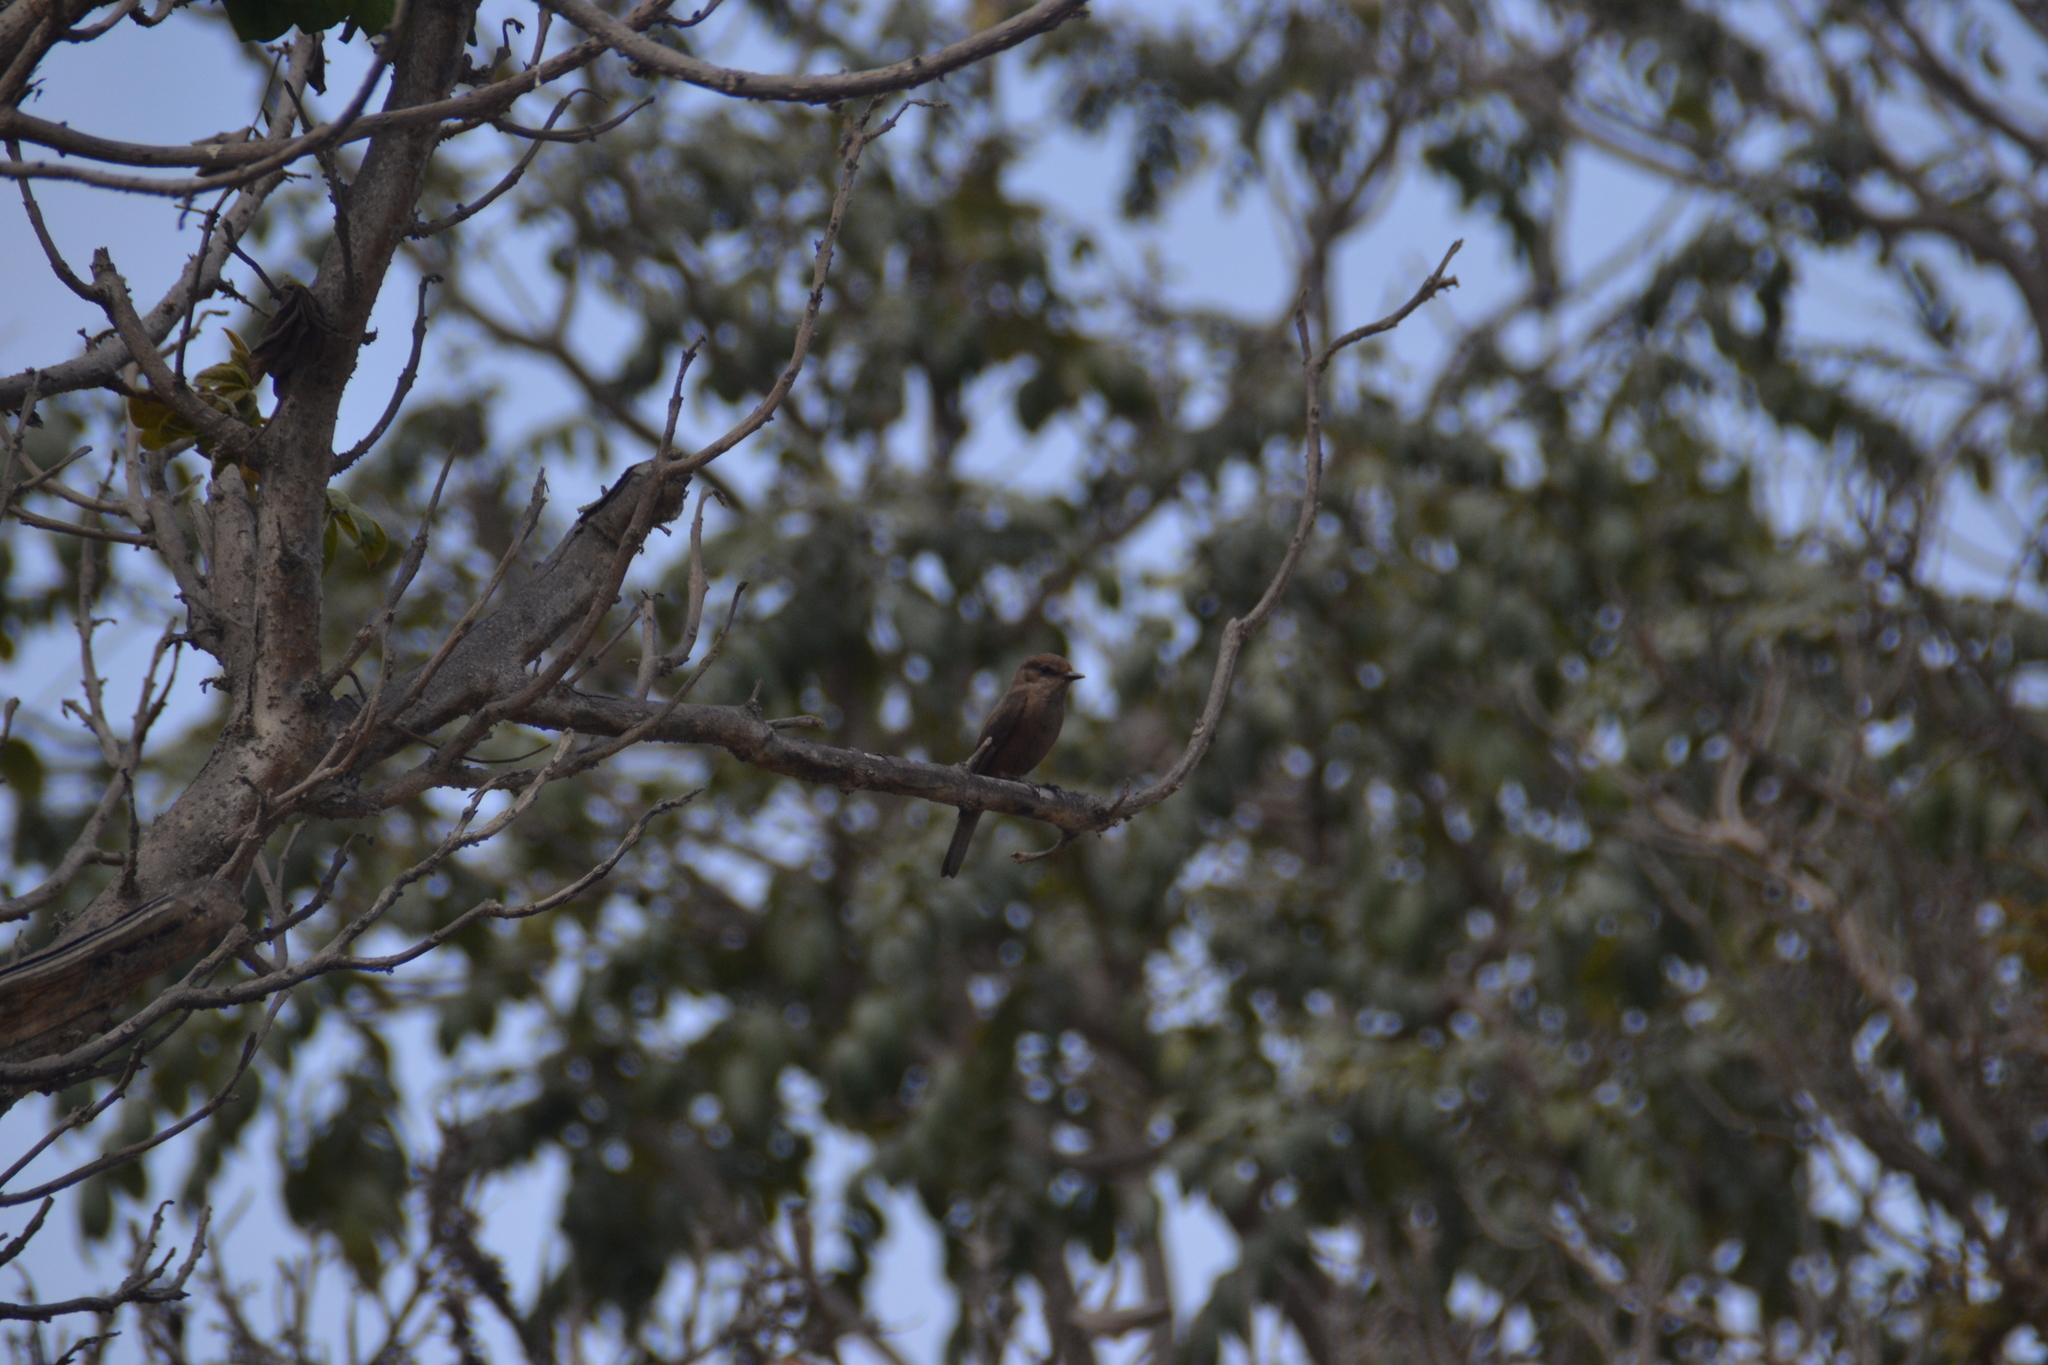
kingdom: Animalia
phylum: Chordata
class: Aves
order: Passeriformes
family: Tyrannidae
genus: Pyrocephalus
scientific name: Pyrocephalus rubinus
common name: Vermilion flycatcher
